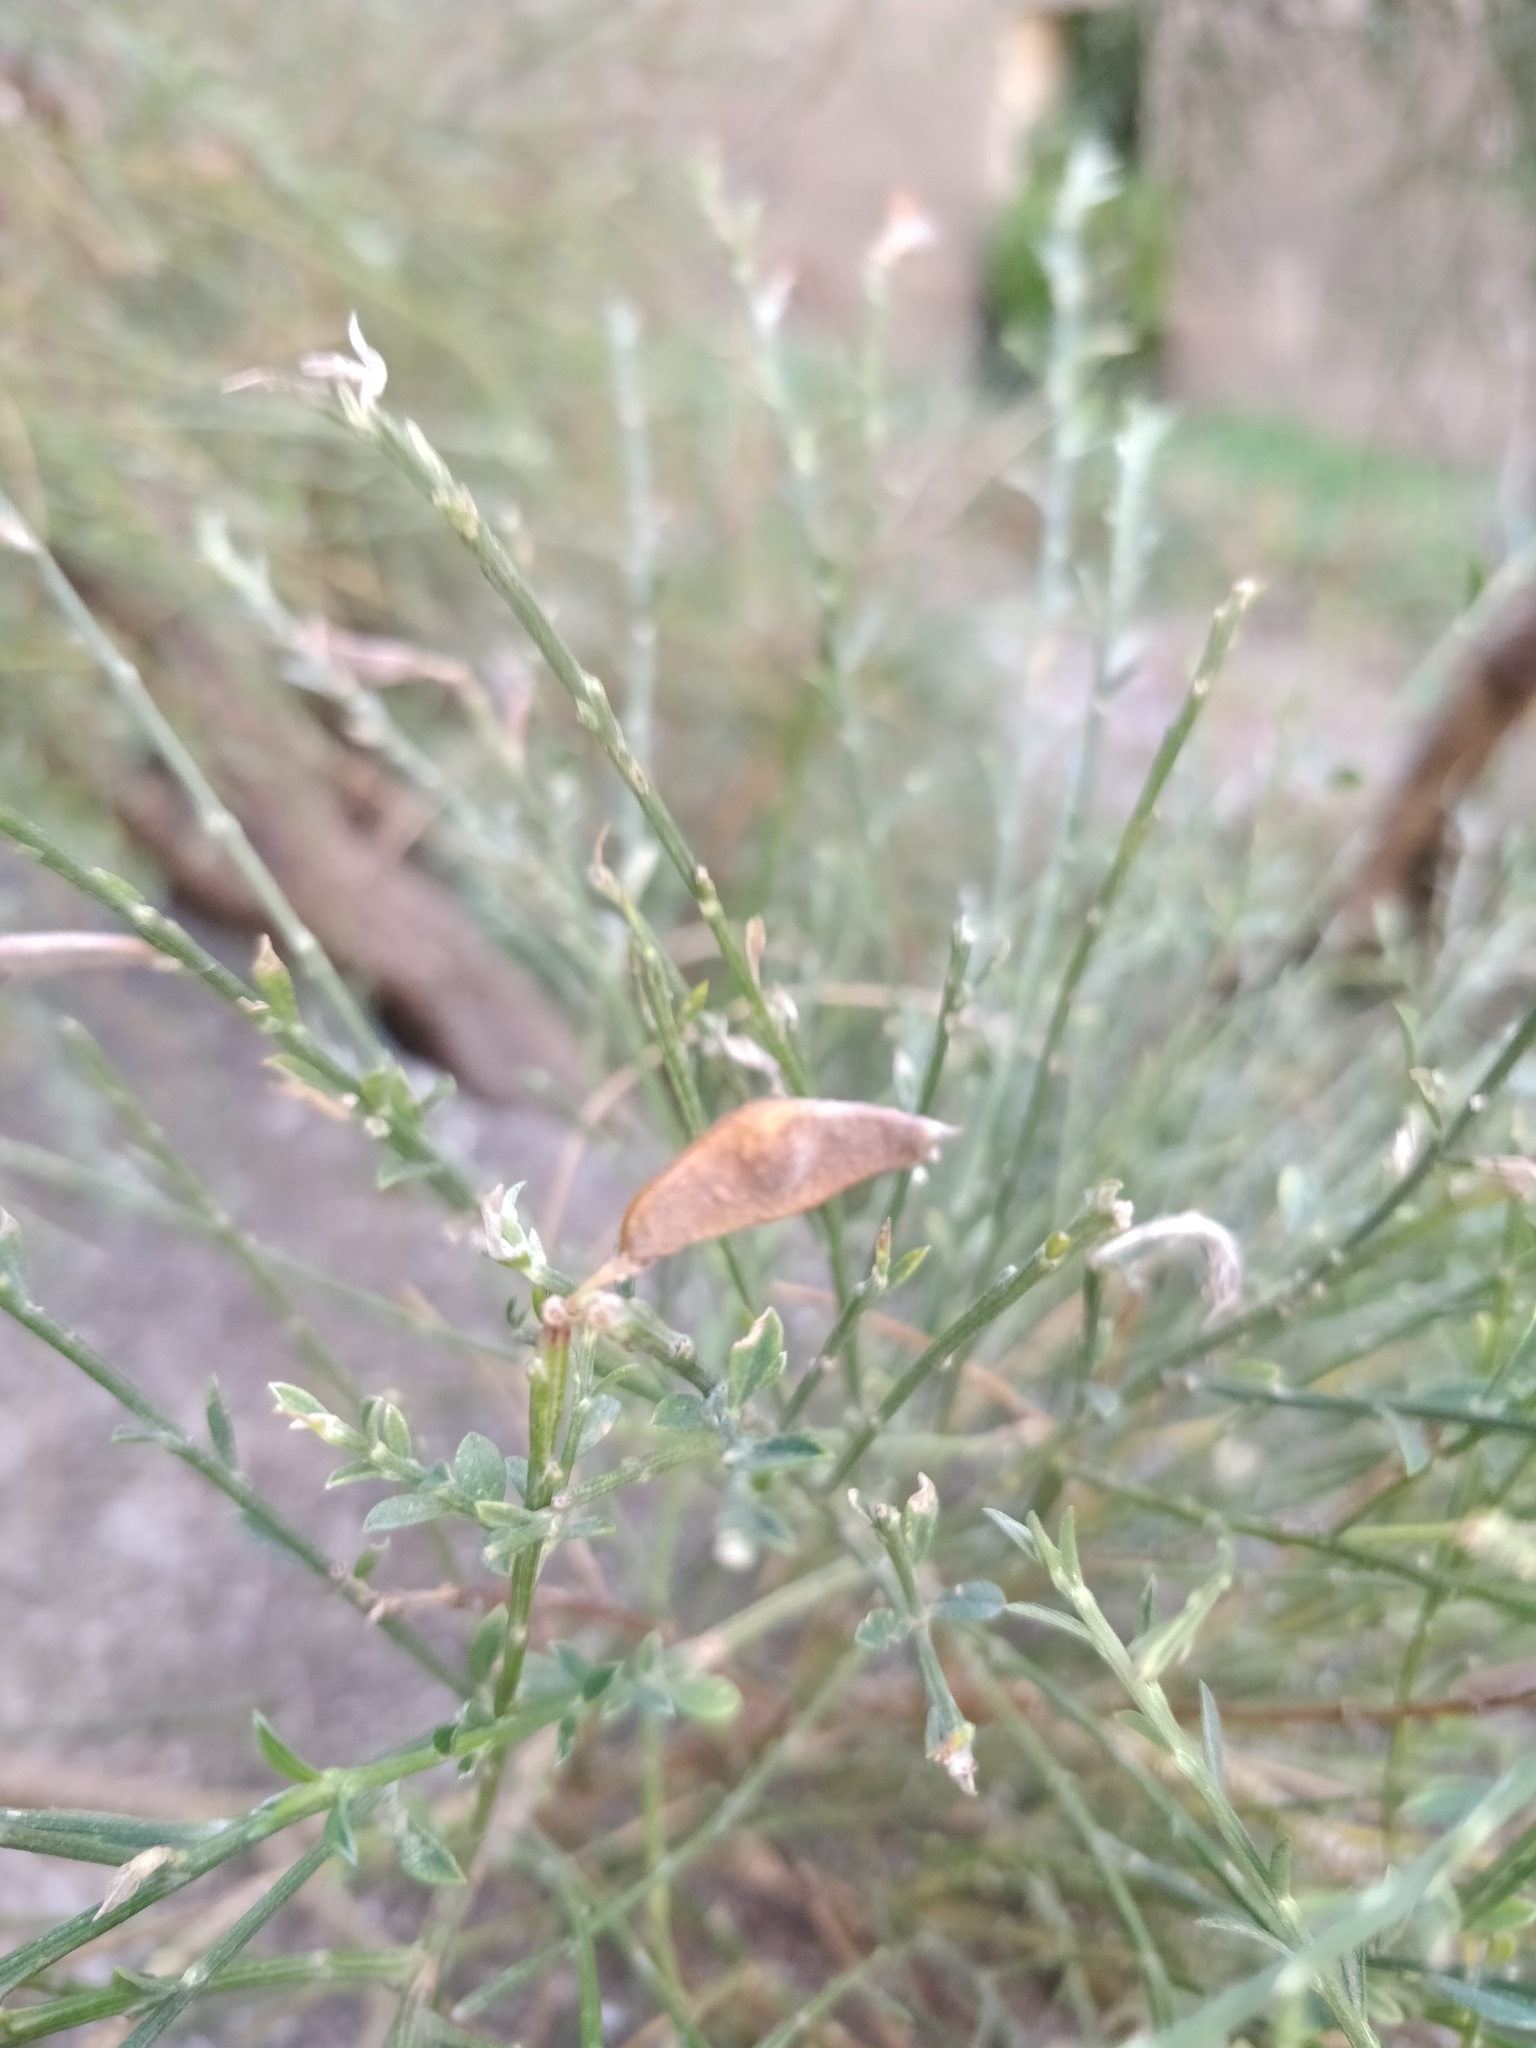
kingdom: Plantae
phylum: Tracheophyta
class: Magnoliopsida
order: Fabales
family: Fabaceae
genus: Genista
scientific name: Genista tenera
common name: Madeira broom
